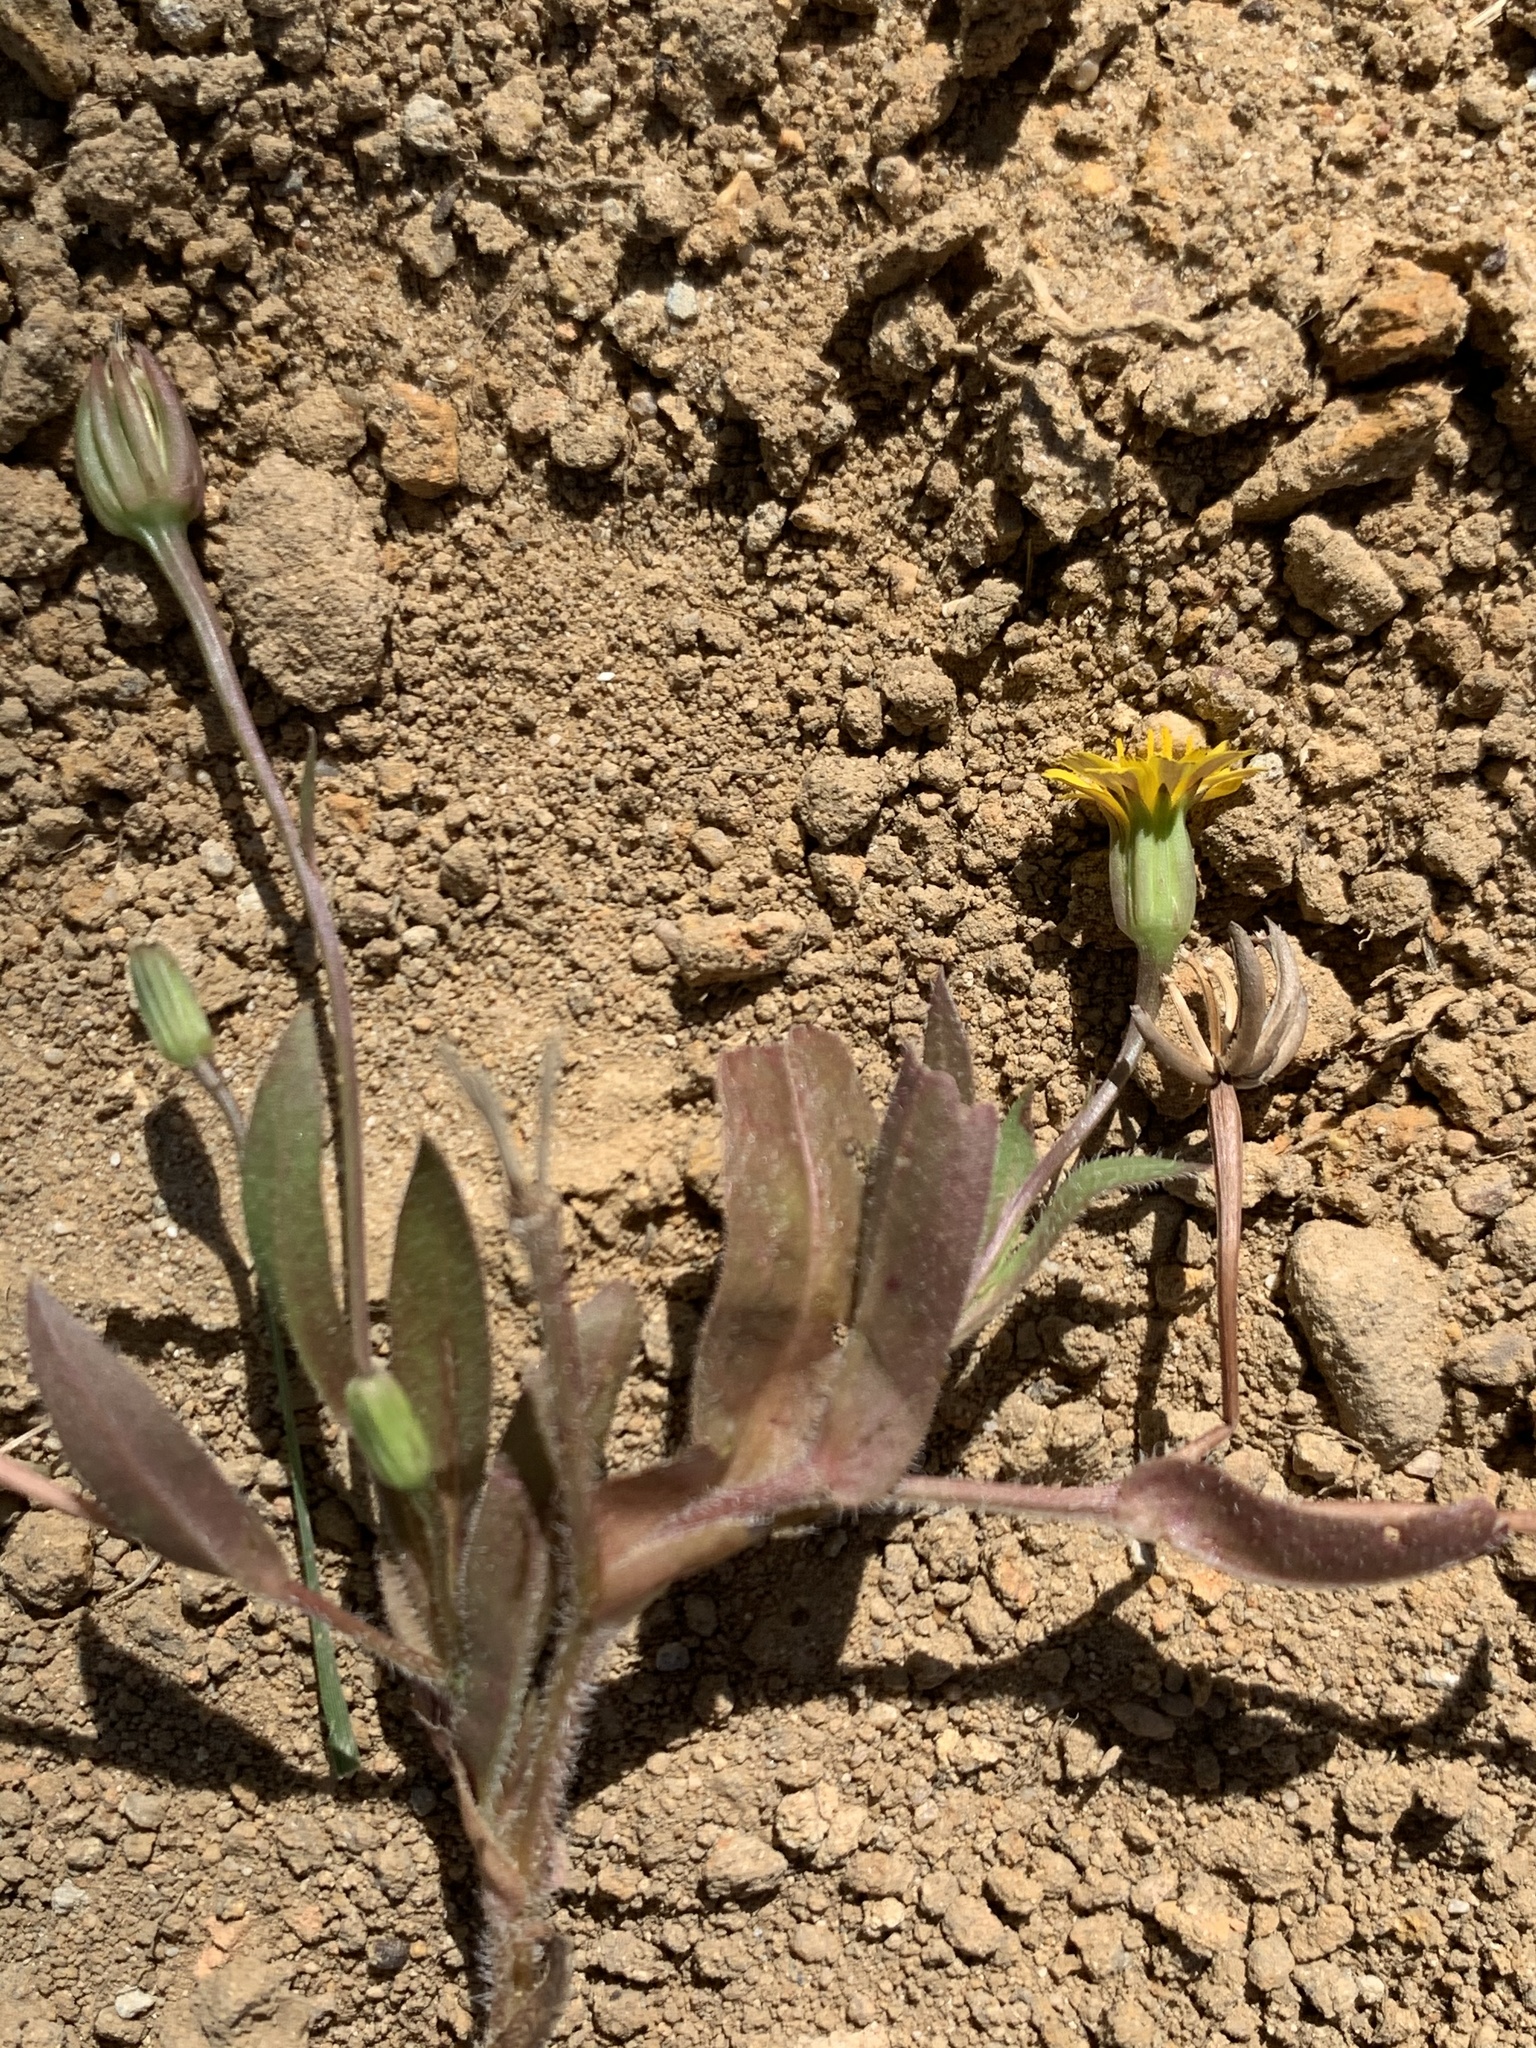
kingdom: Plantae
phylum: Tracheophyta
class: Magnoliopsida
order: Asterales
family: Asteraceae
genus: Hedypnois
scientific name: Hedypnois rhagadioloides
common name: Cretan weed
